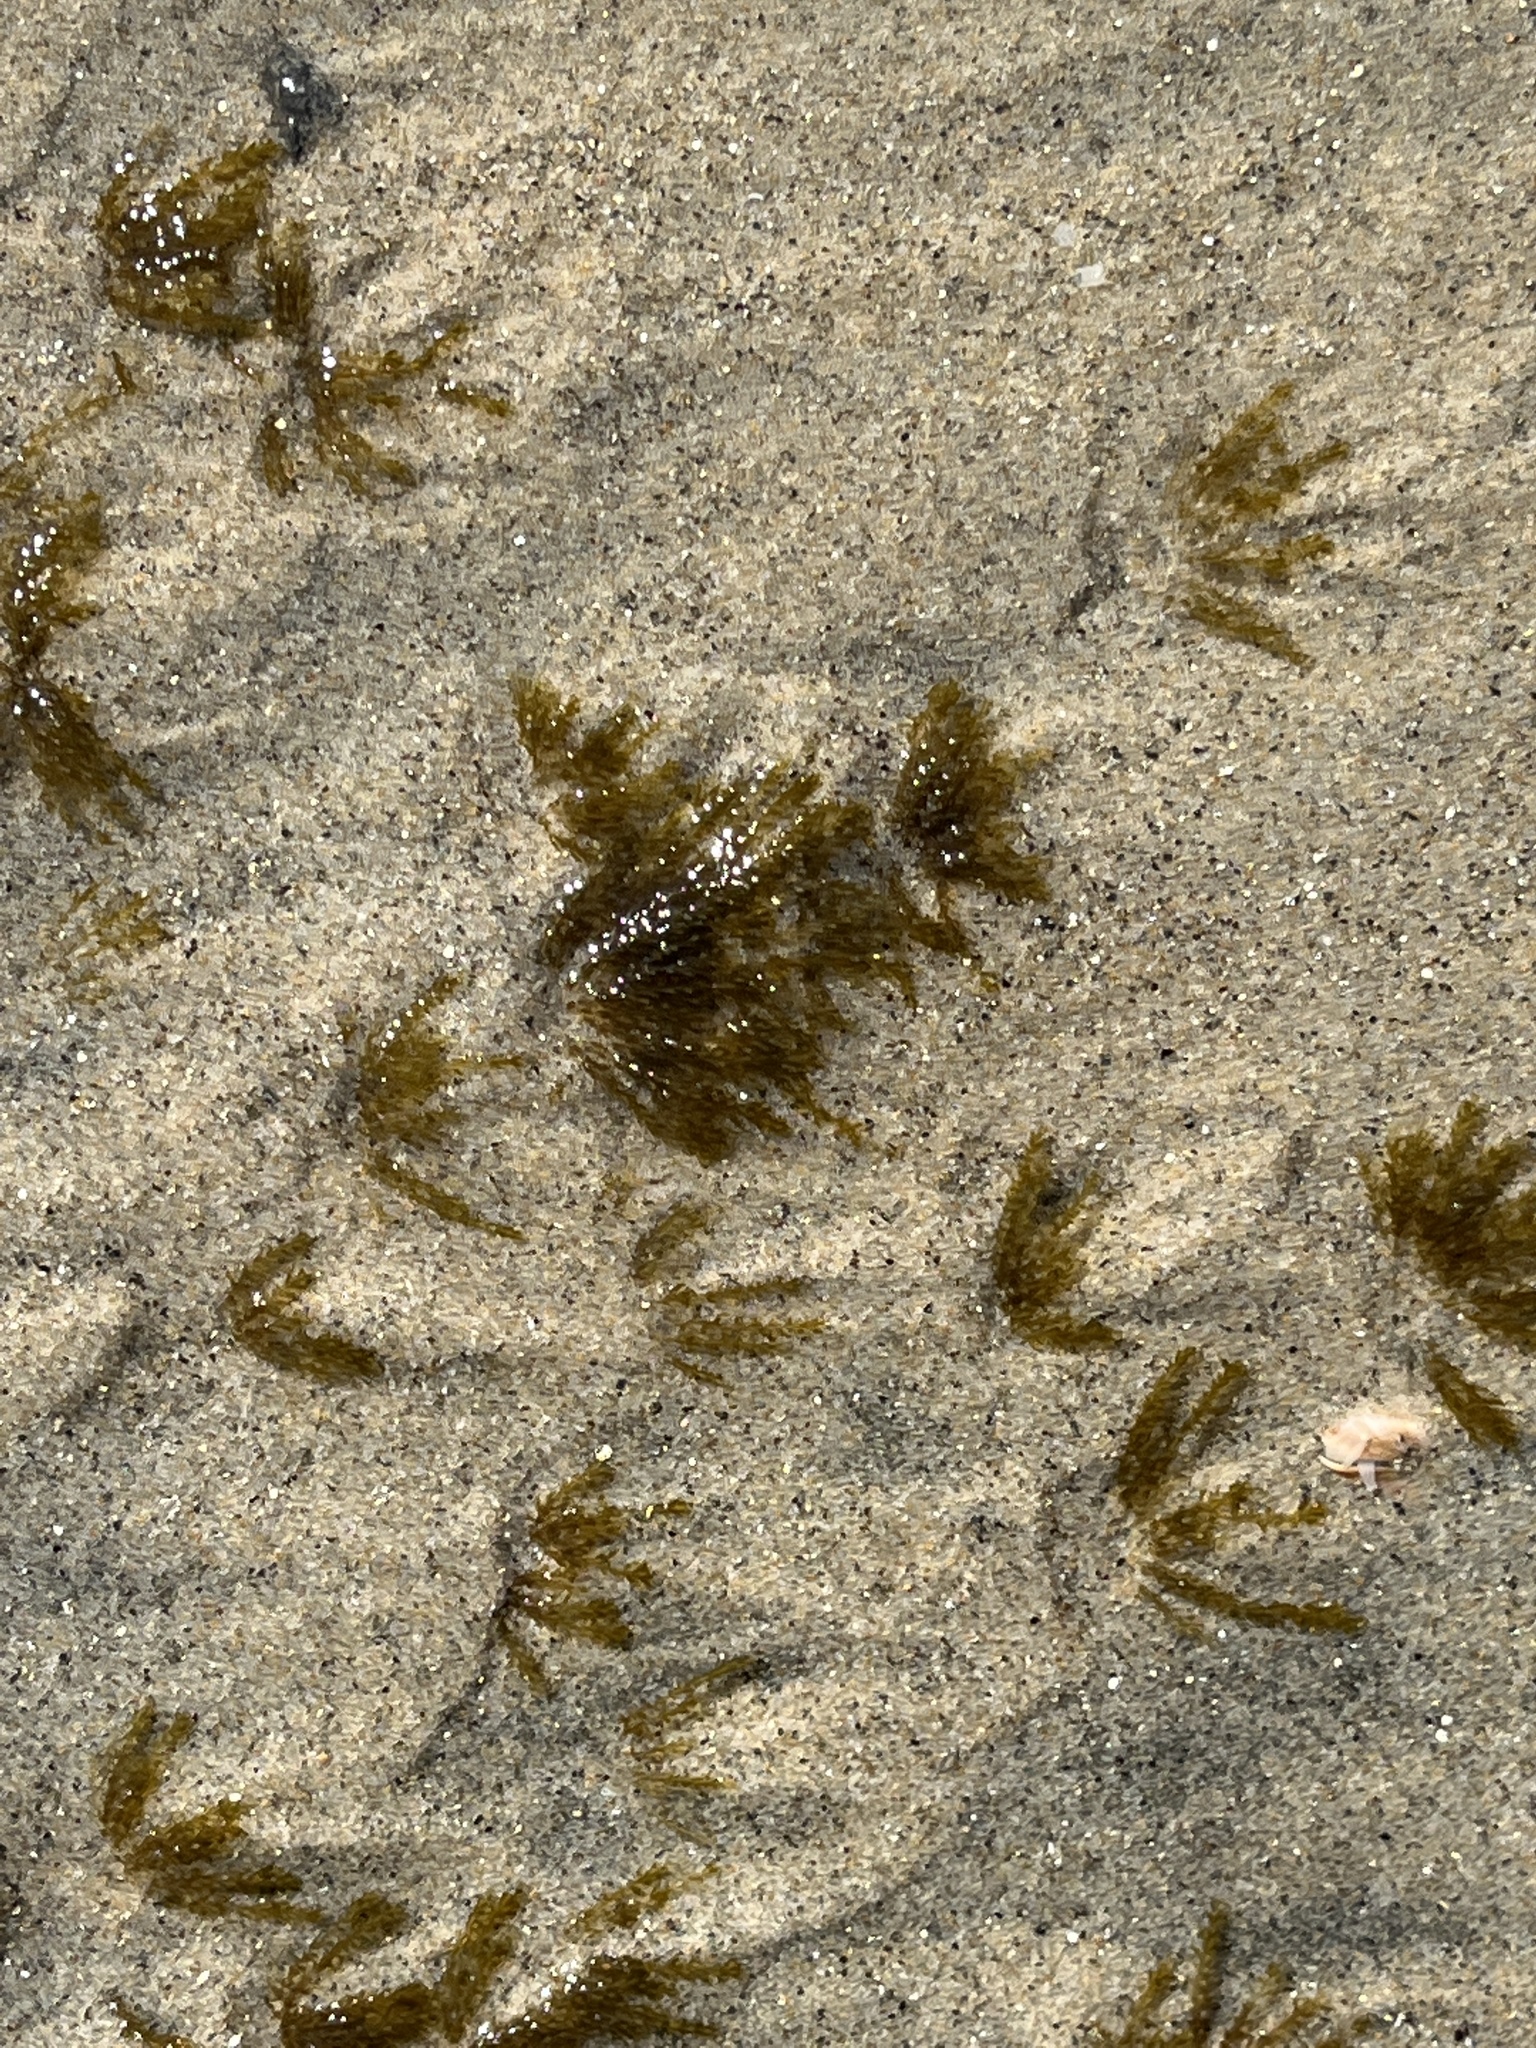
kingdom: Animalia
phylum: Cnidaria
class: Hydrozoa
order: Leptothecata
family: Lovenellidae
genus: Eucheilota
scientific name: Eucheilota bakeri
